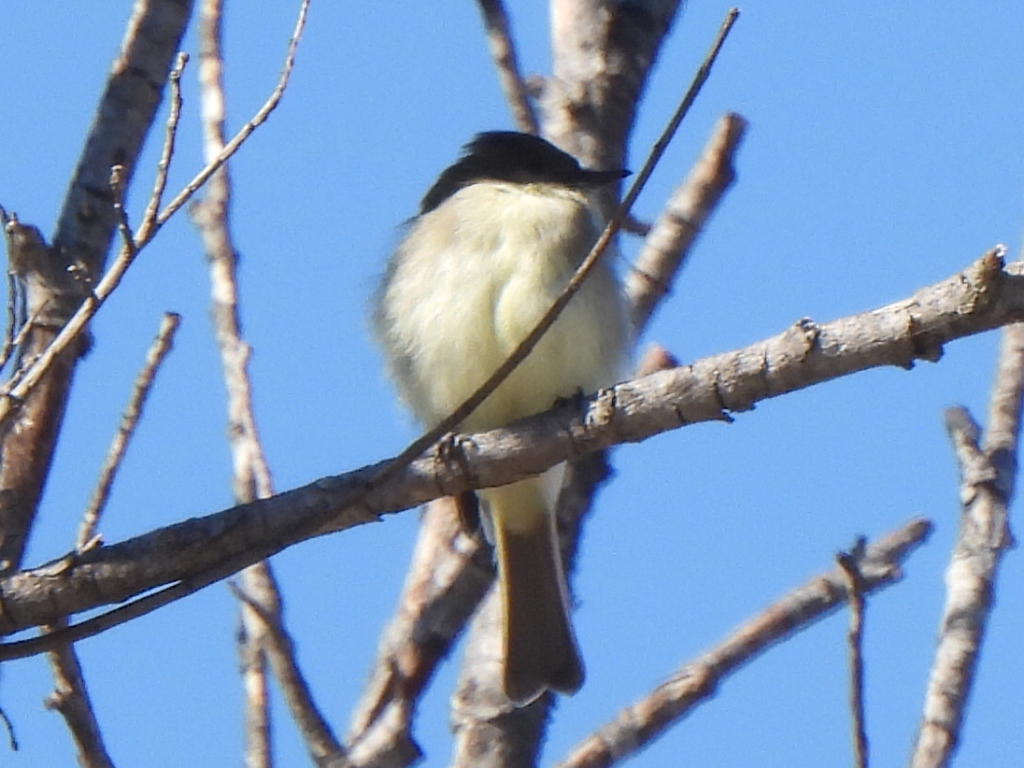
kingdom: Animalia
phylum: Chordata
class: Aves
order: Passeriformes
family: Tyrannidae
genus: Sayornis
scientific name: Sayornis phoebe
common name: Eastern phoebe
